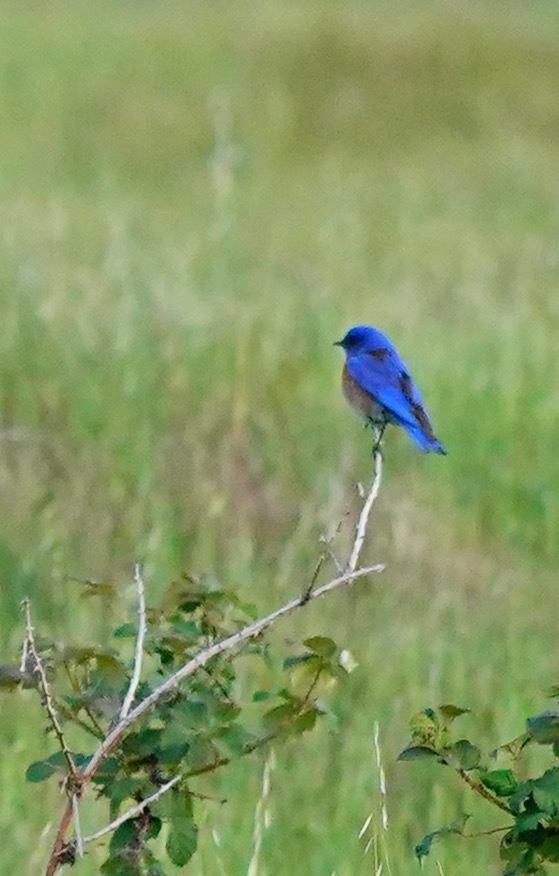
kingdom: Animalia
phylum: Chordata
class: Aves
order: Passeriformes
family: Turdidae
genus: Sialia
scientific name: Sialia mexicana
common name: Western bluebird
